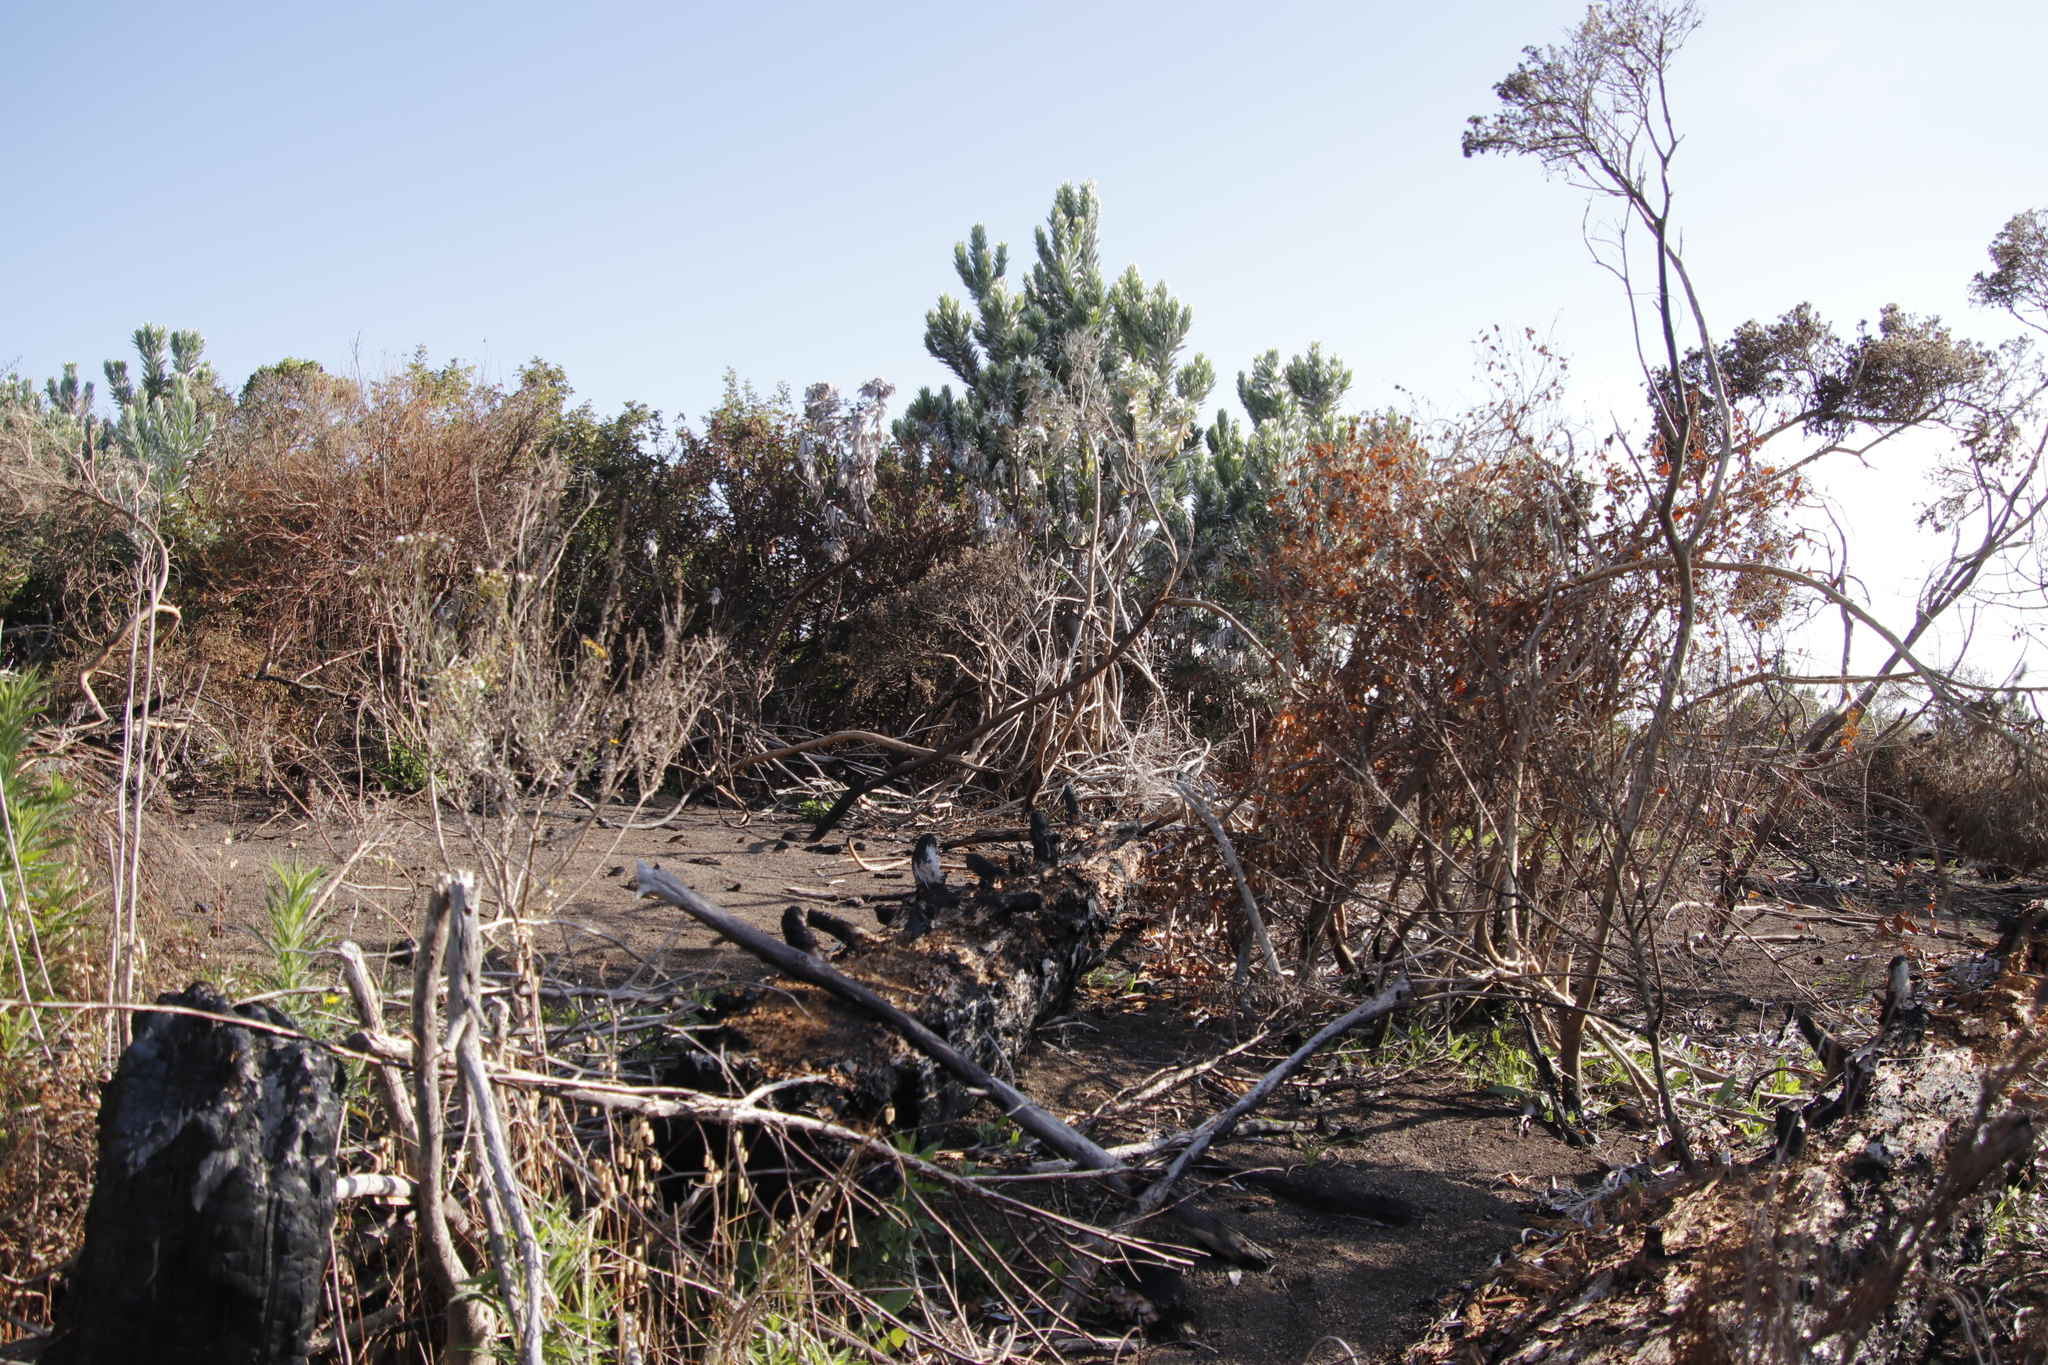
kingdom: Plantae
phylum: Tracheophyta
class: Magnoliopsida
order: Proteales
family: Proteaceae
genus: Leucadendron
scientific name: Leucadendron argenteum
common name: Cape silver tree
